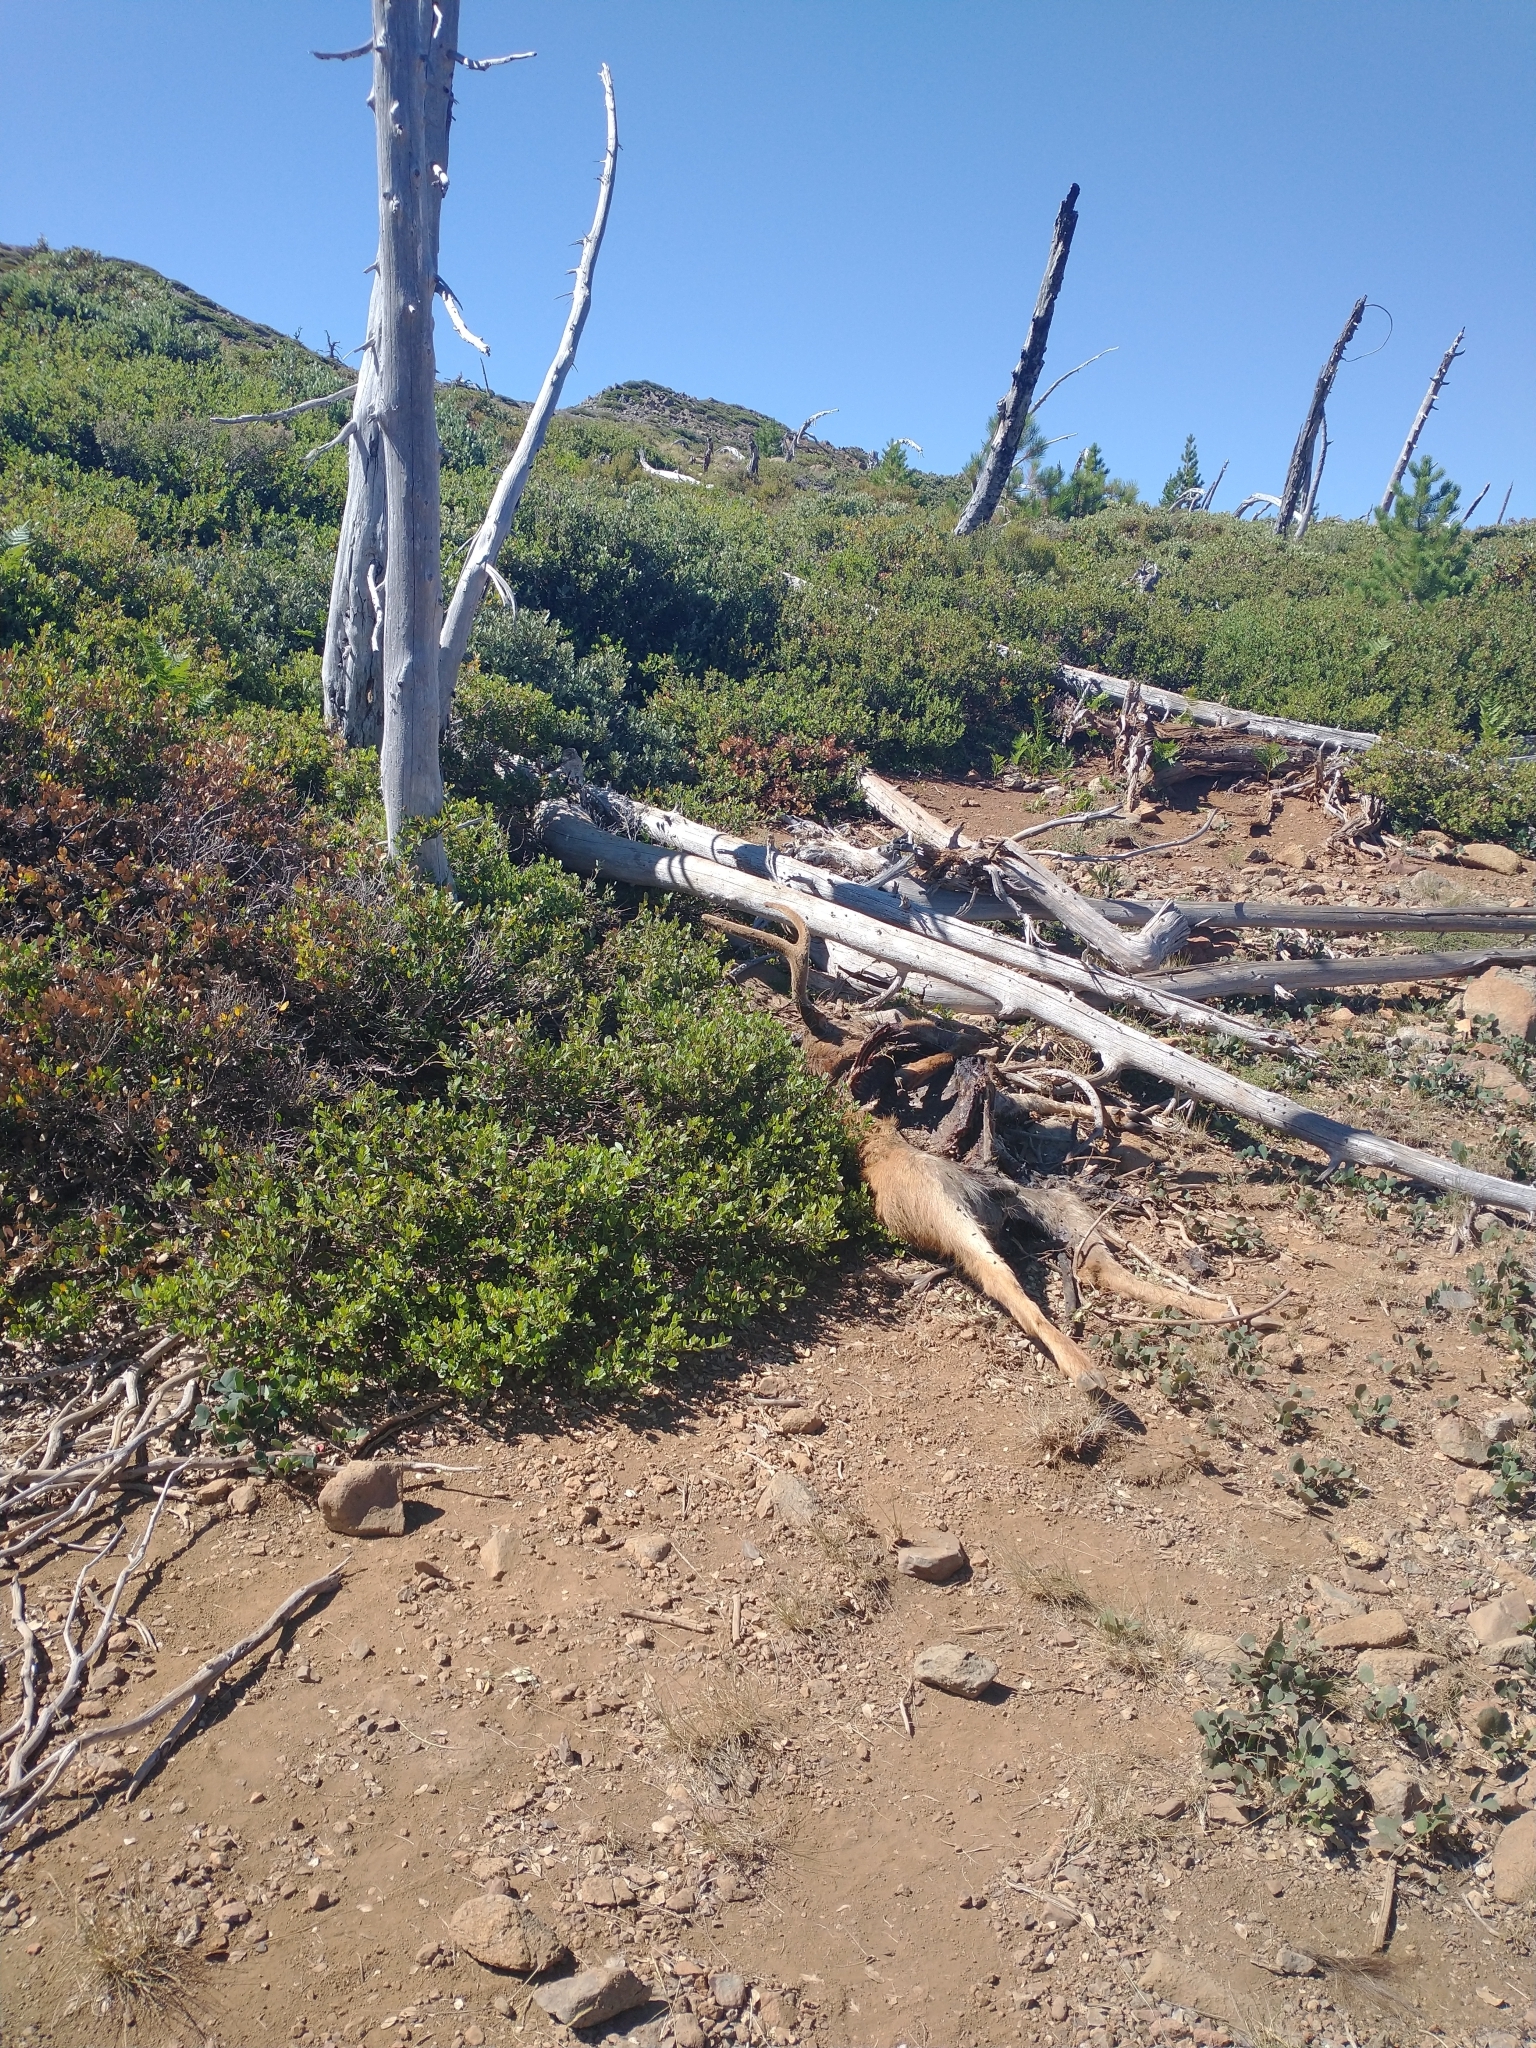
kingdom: Animalia
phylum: Chordata
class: Mammalia
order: Artiodactyla
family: Cervidae
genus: Odocoileus
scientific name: Odocoileus hemionus
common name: Mule deer
